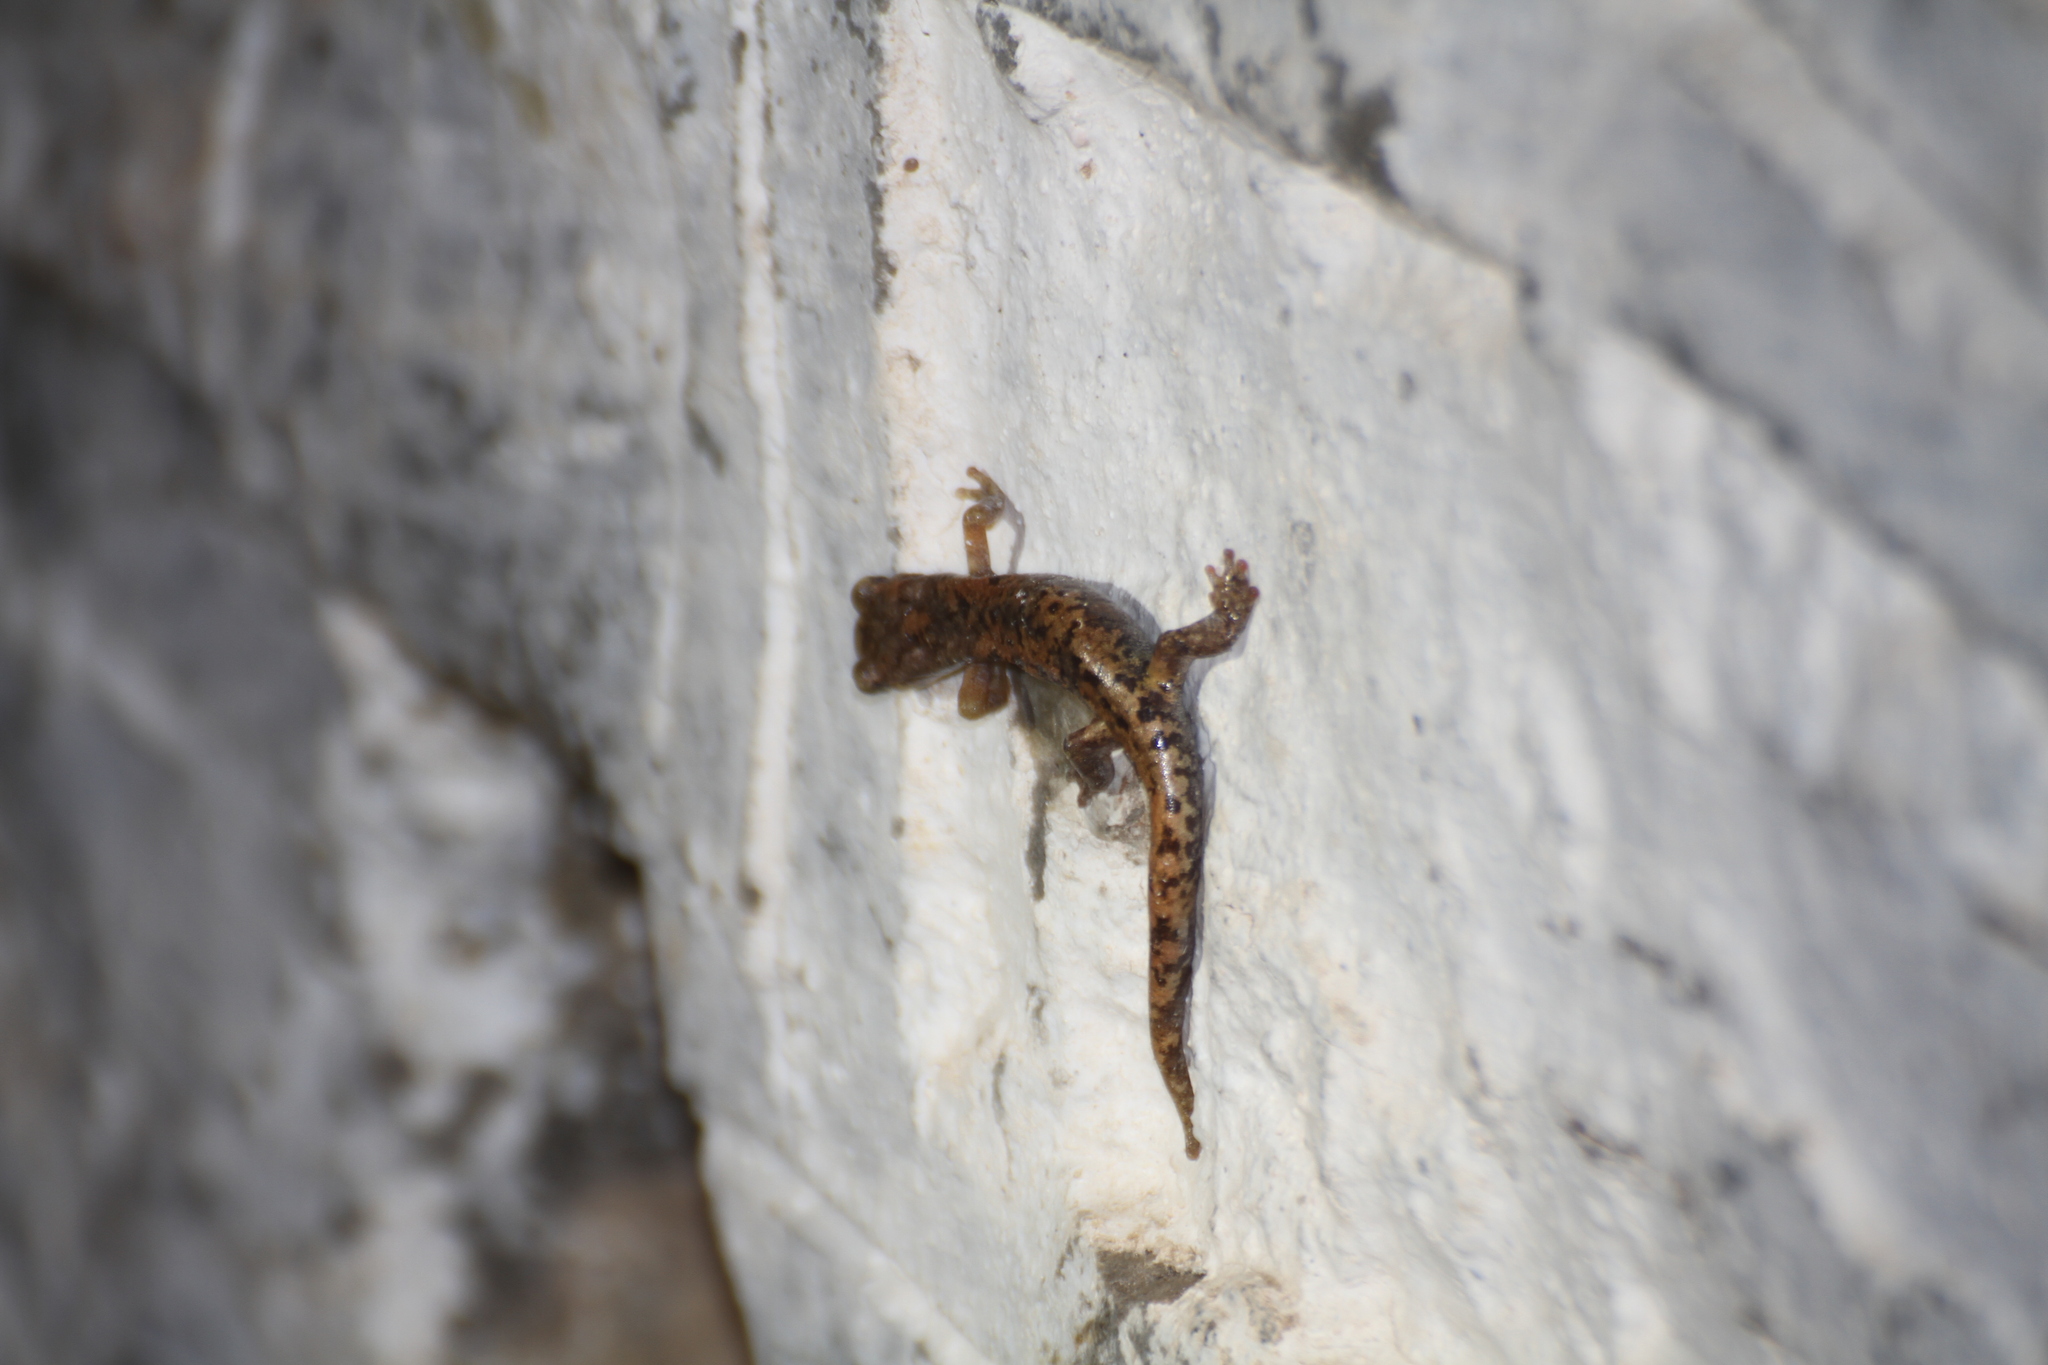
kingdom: Animalia
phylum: Chordata
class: Amphibia
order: Caudata
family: Plethodontidae
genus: Speleomantes
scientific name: Speleomantes strinatii
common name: French cave salamander
